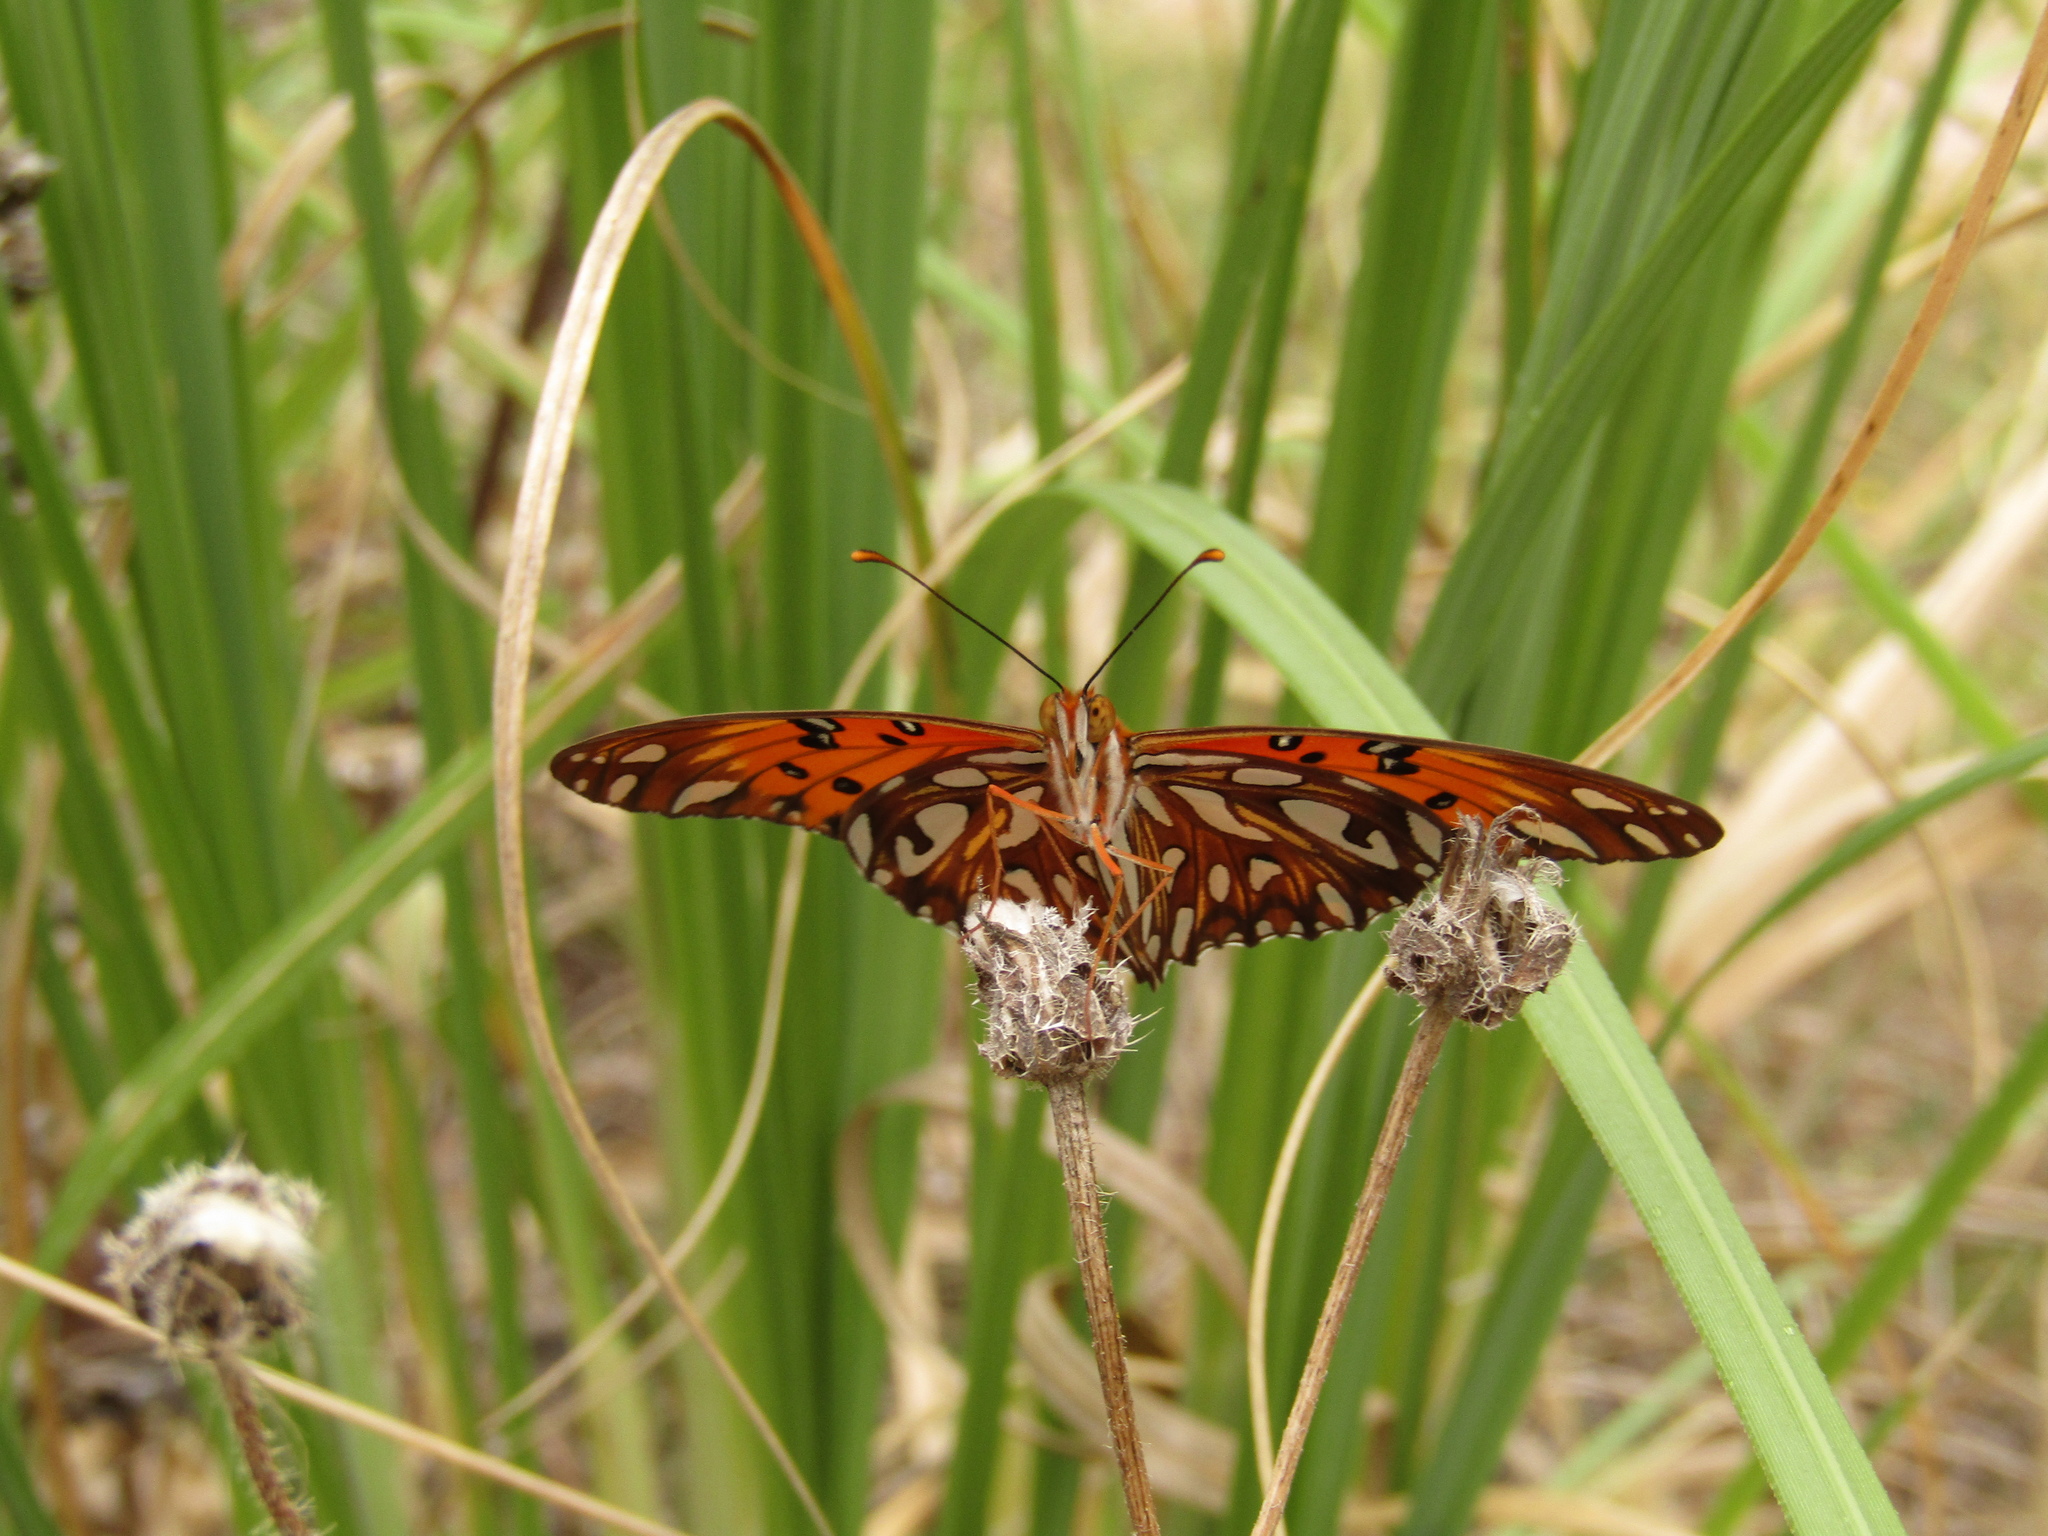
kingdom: Animalia
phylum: Arthropoda
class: Insecta
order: Lepidoptera
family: Nymphalidae
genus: Dione
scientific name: Dione vanillae
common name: Gulf fritillary
